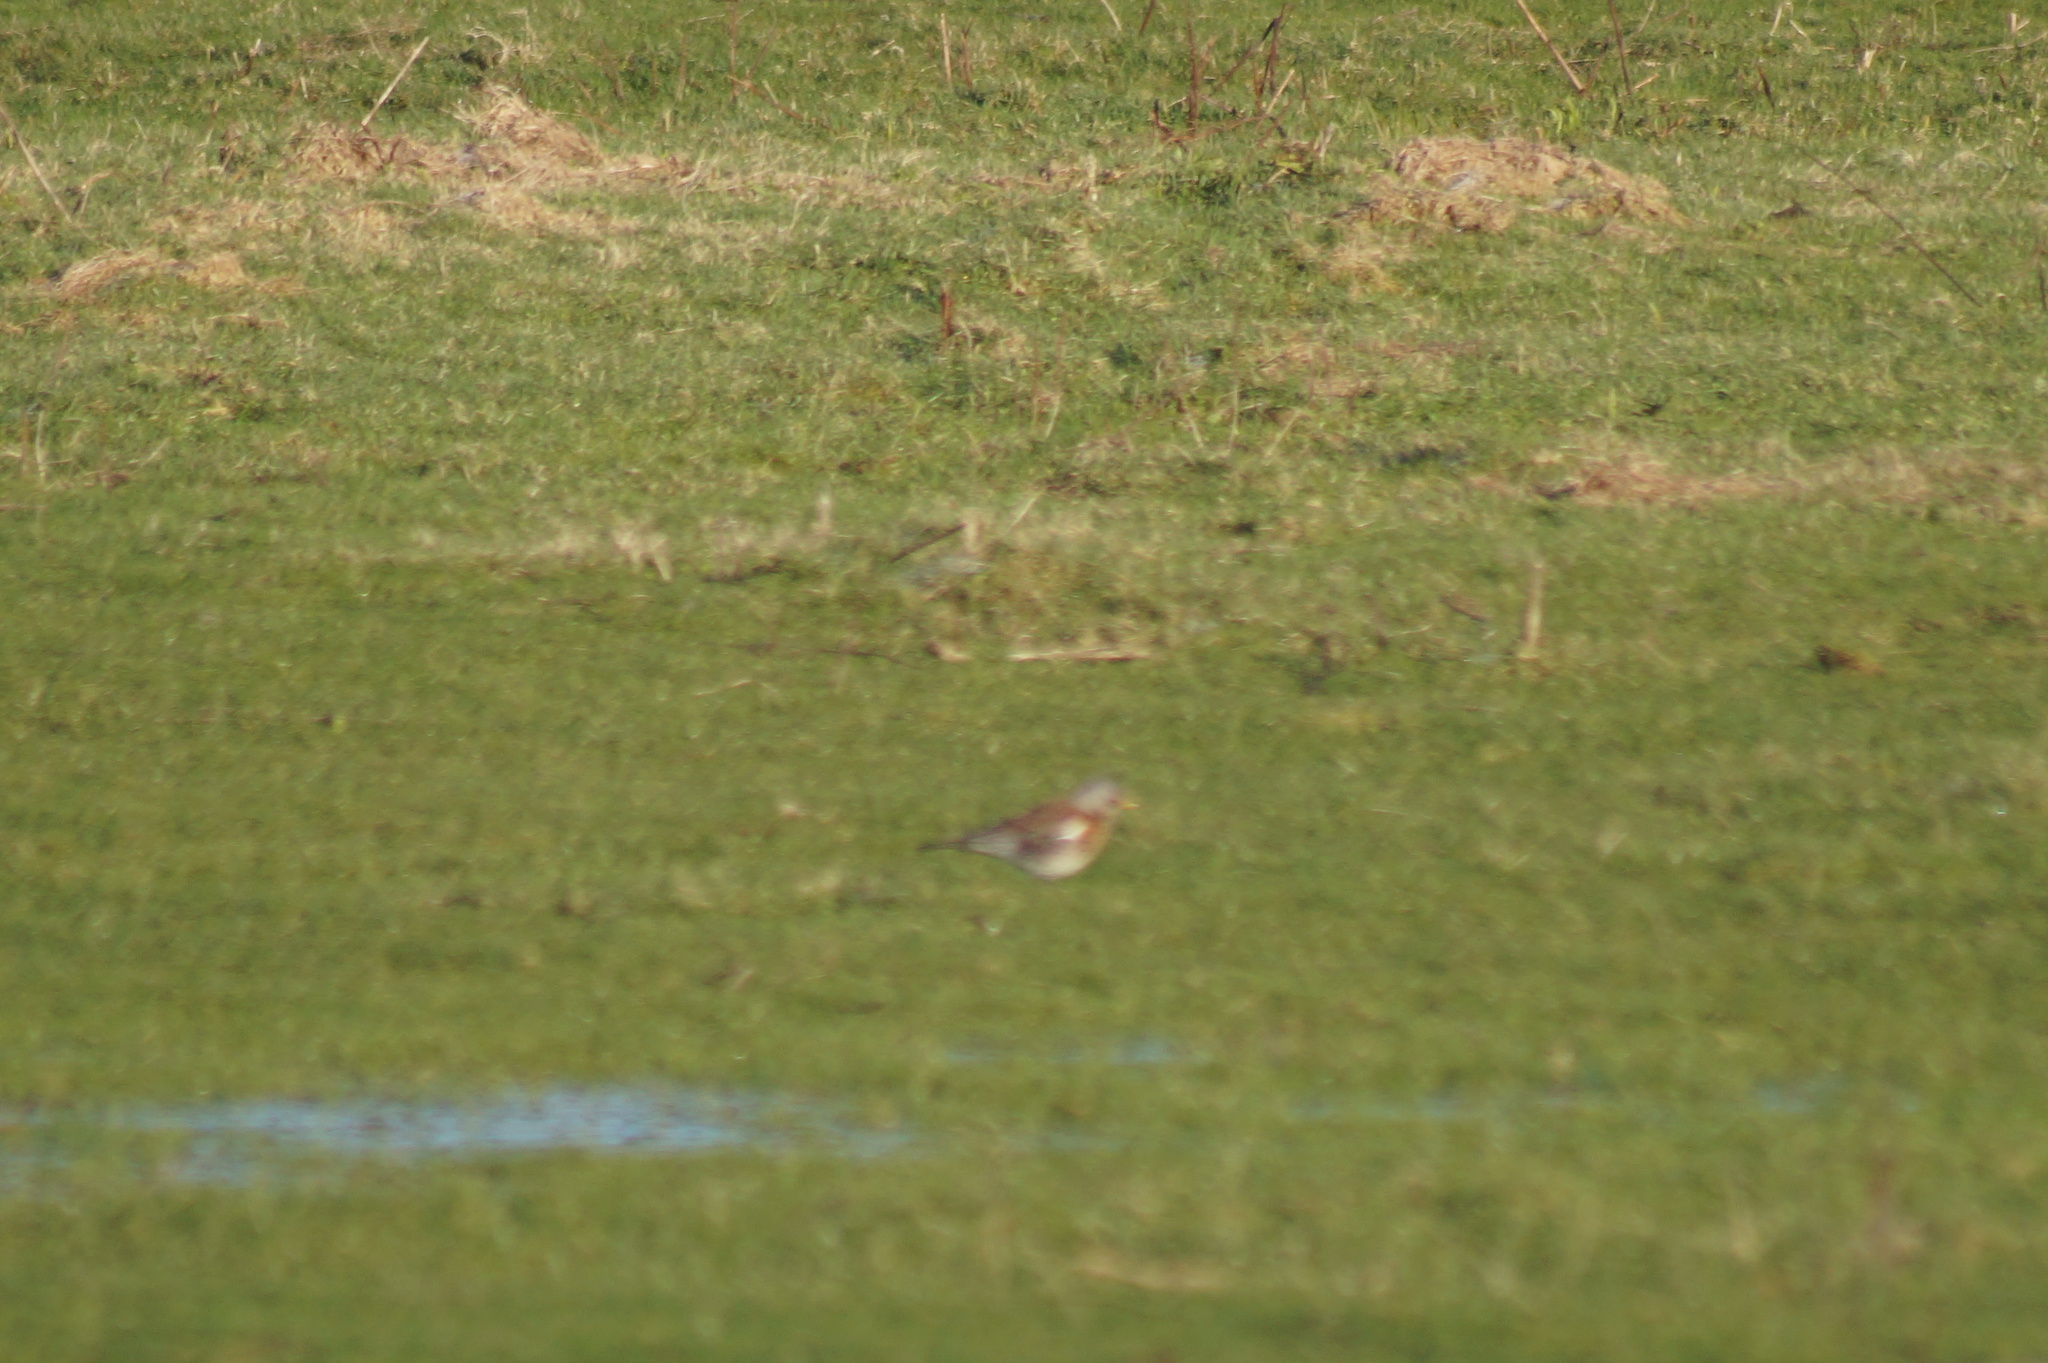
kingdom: Animalia
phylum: Chordata
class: Aves
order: Passeriformes
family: Turdidae
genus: Turdus
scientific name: Turdus pilaris
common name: Fieldfare
